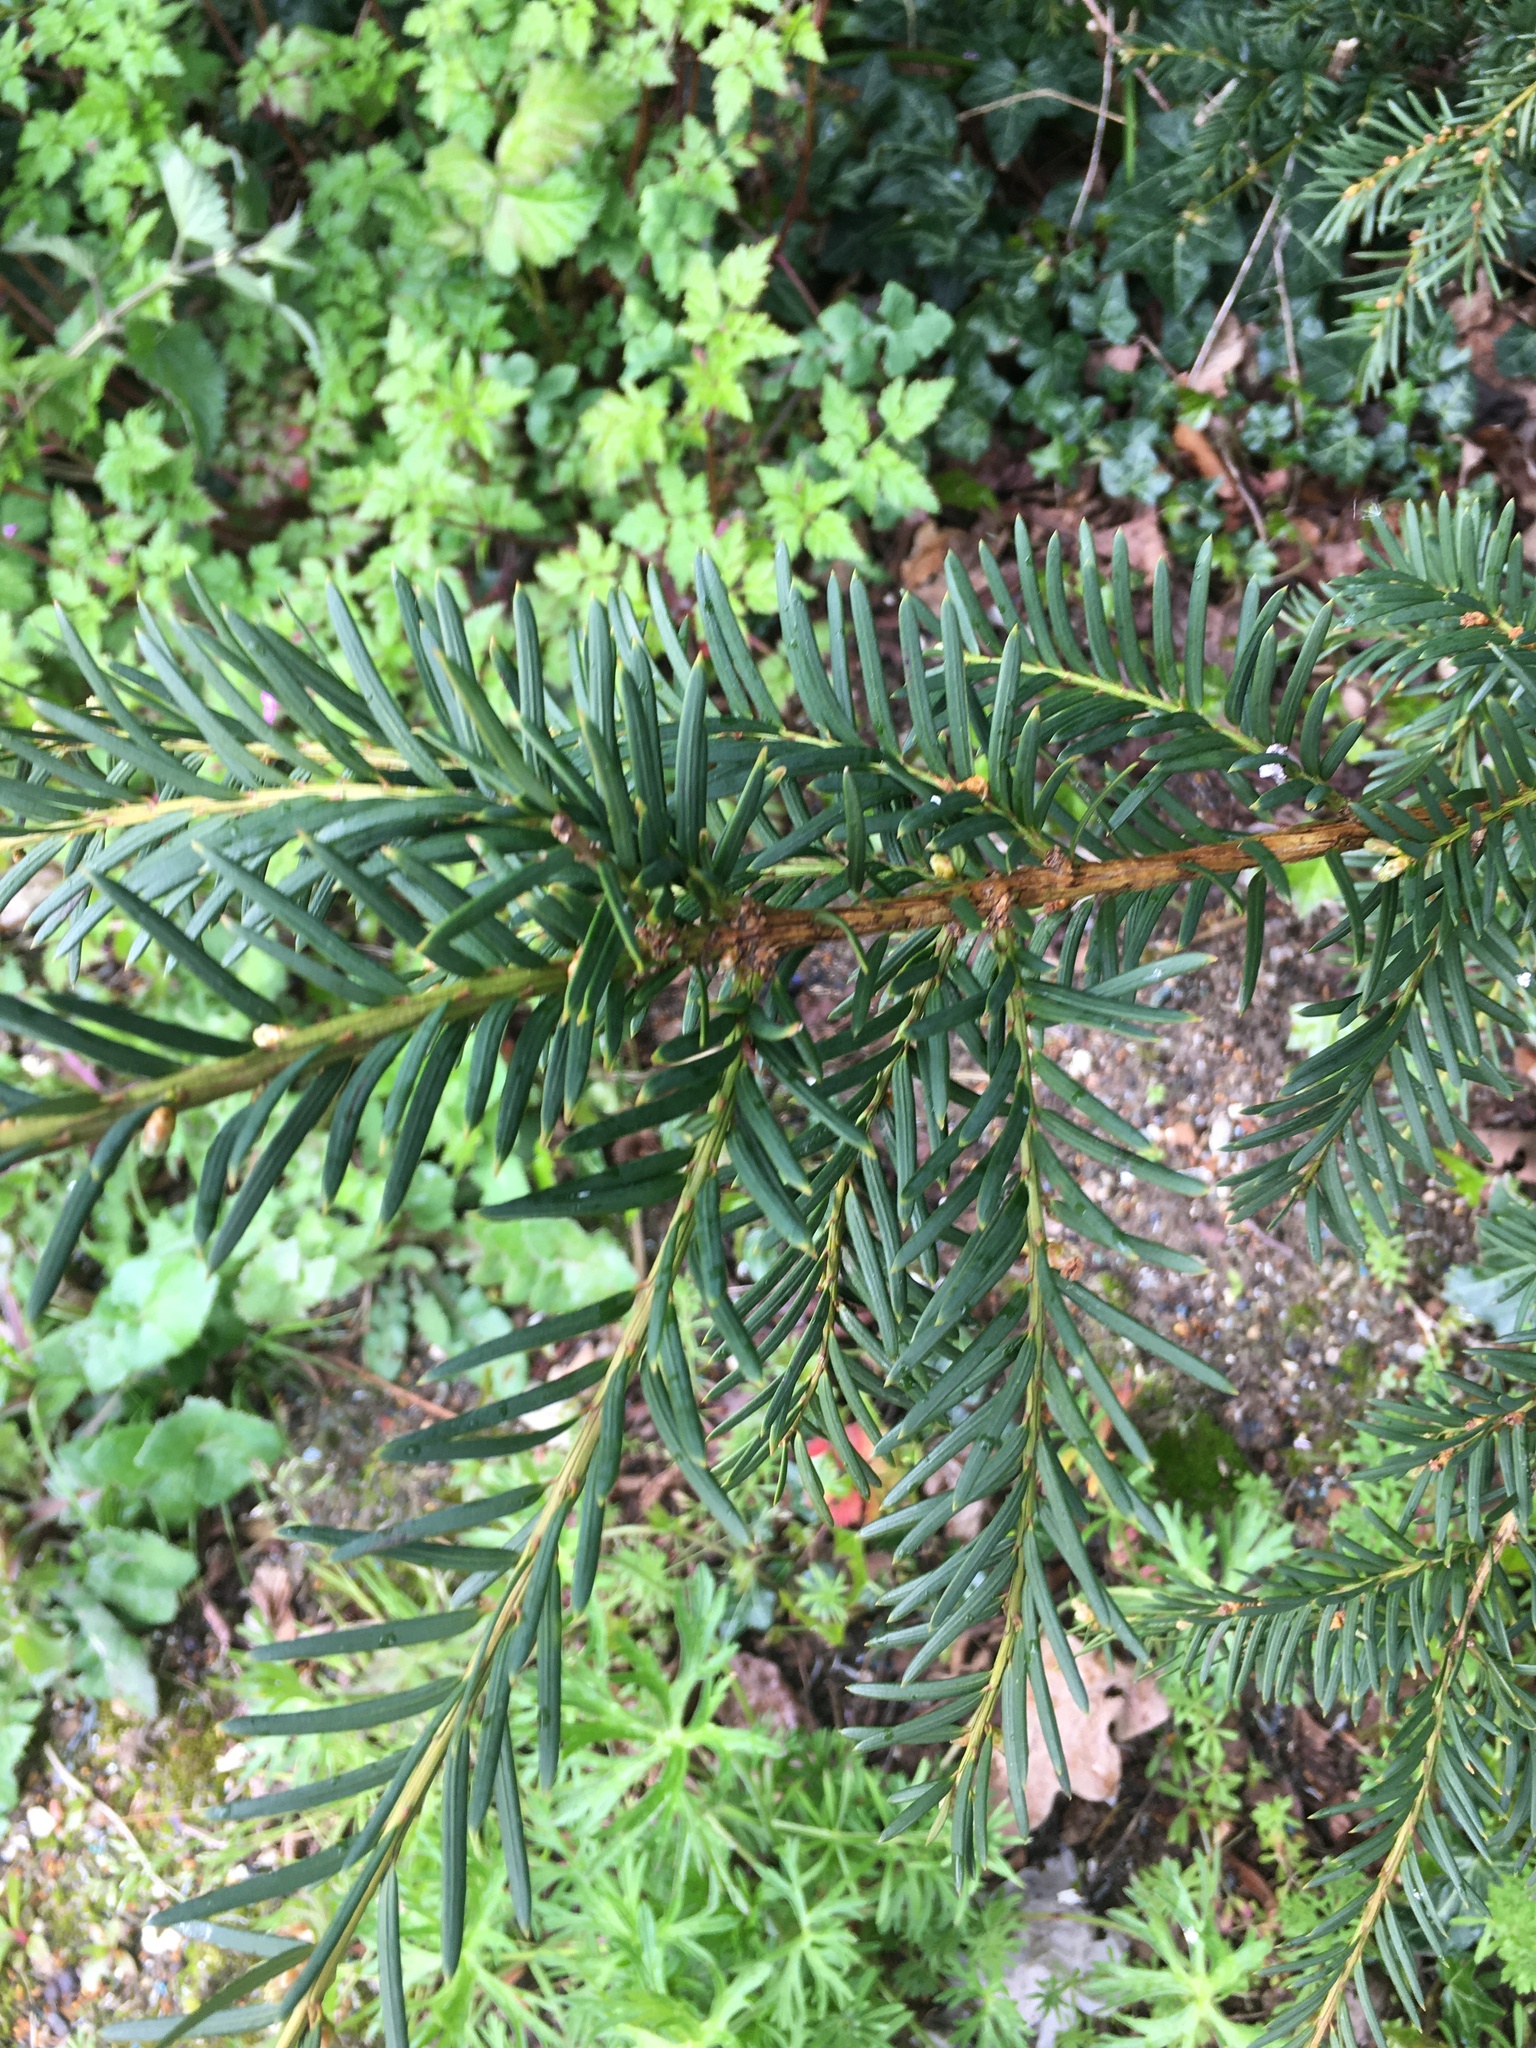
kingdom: Plantae
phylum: Tracheophyta
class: Pinopsida
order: Pinales
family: Taxaceae
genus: Taxus
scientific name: Taxus baccata
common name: Yew
